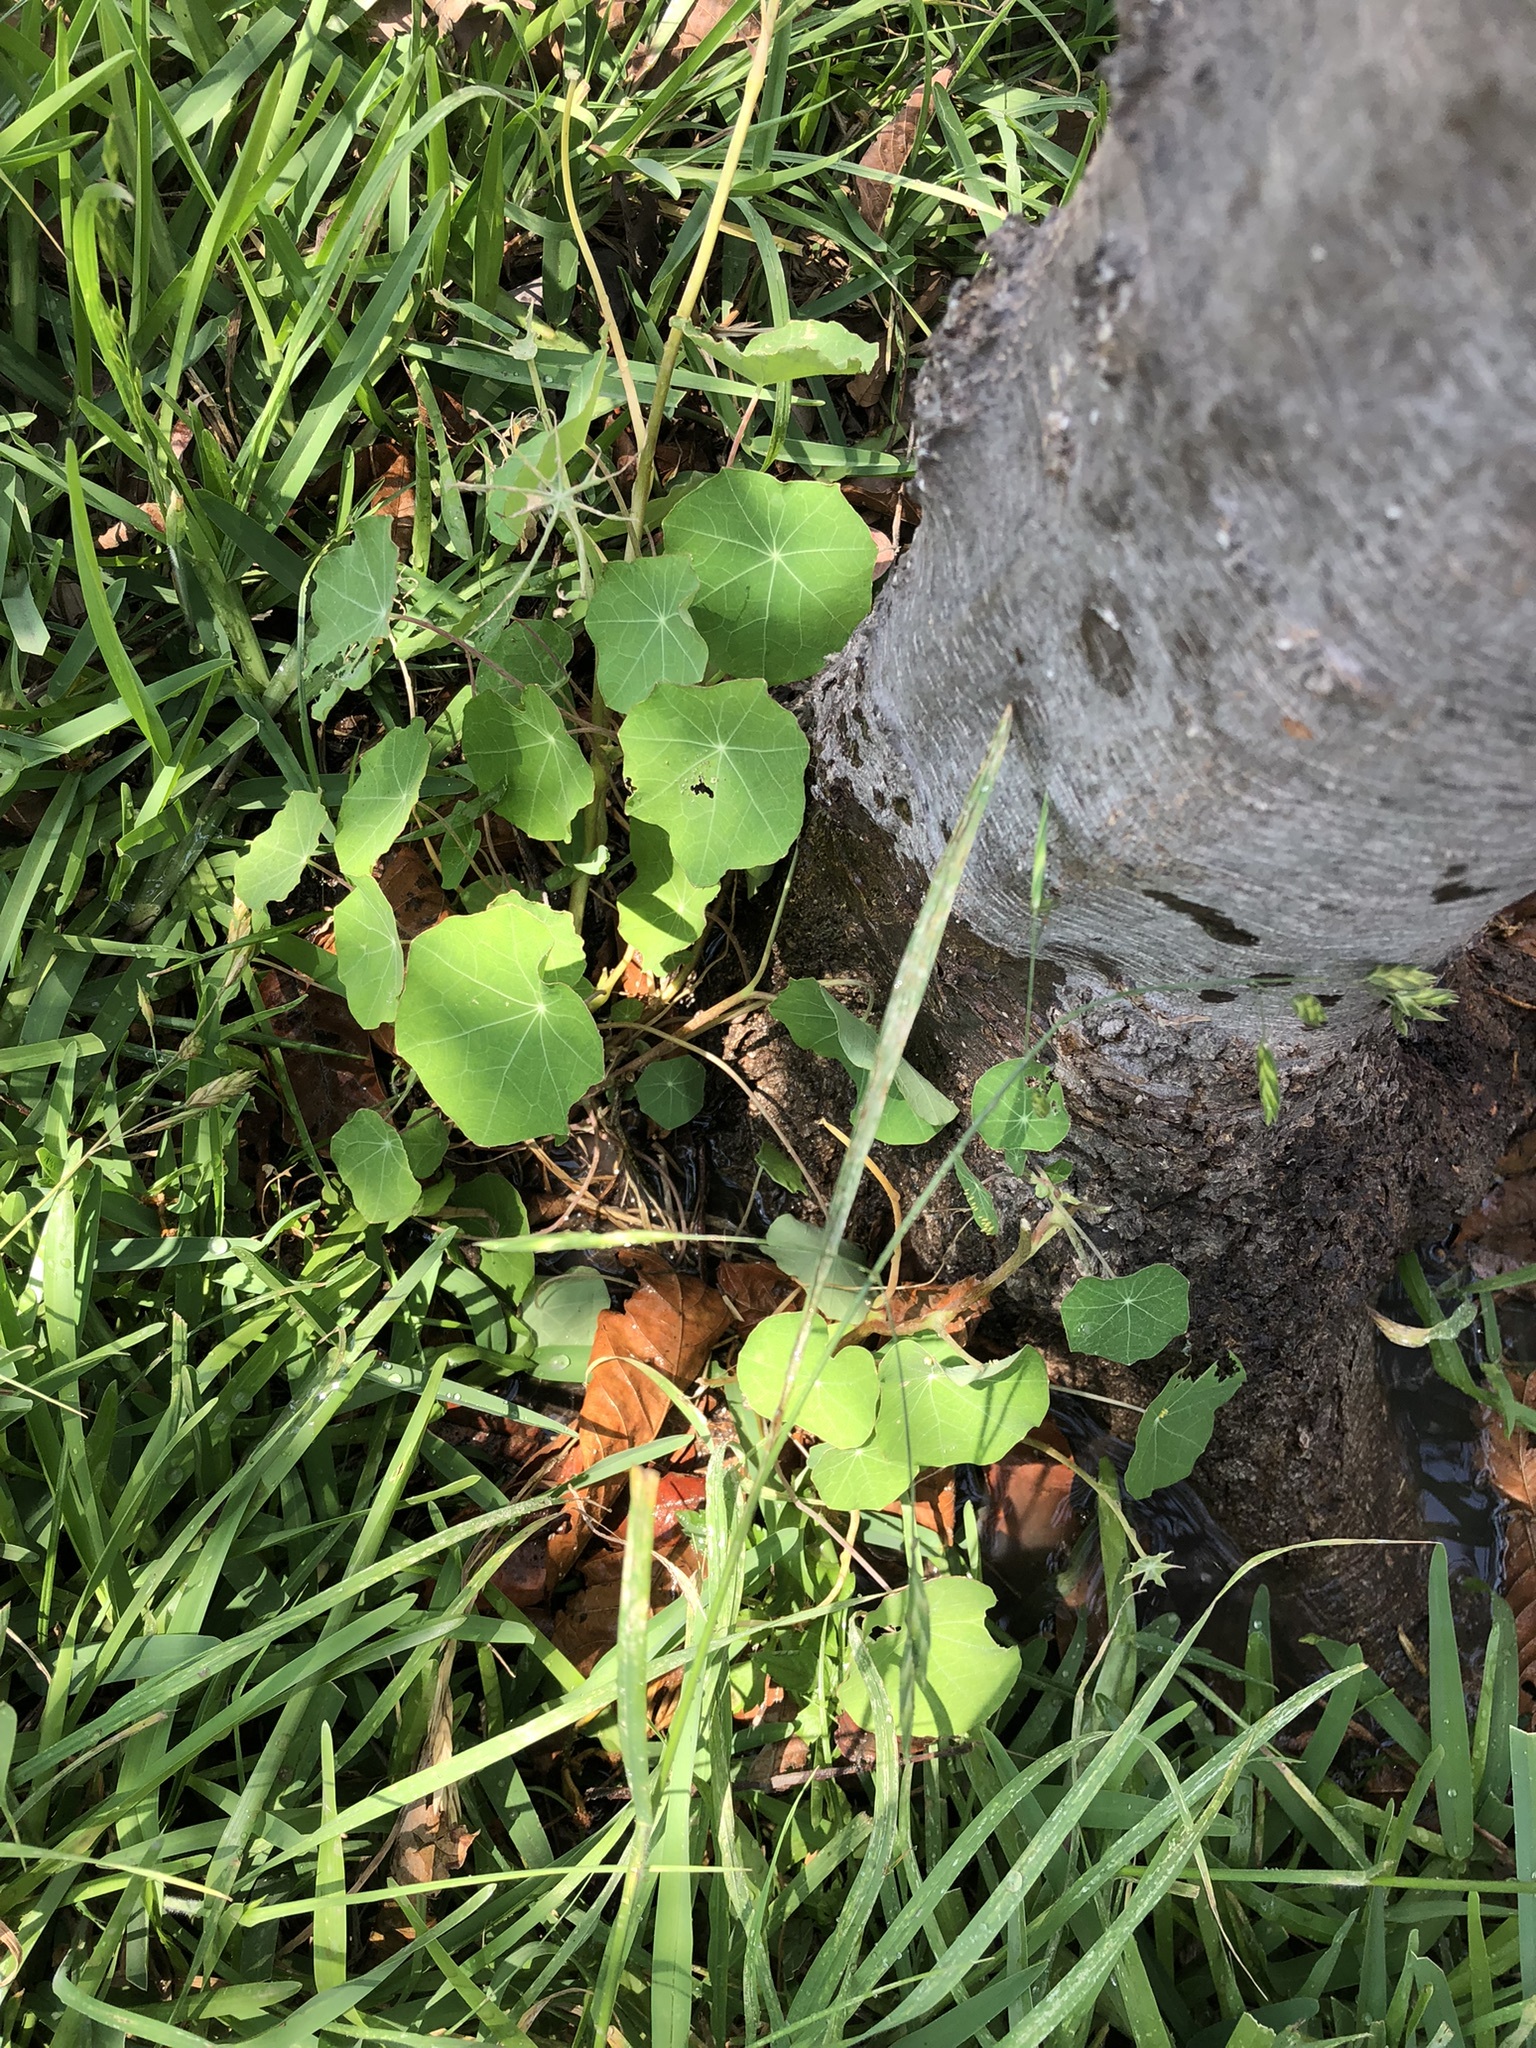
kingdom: Plantae
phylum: Tracheophyta
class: Magnoliopsida
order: Brassicales
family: Tropaeolaceae
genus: Tropaeolum
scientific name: Tropaeolum majus
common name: Nasturtium
